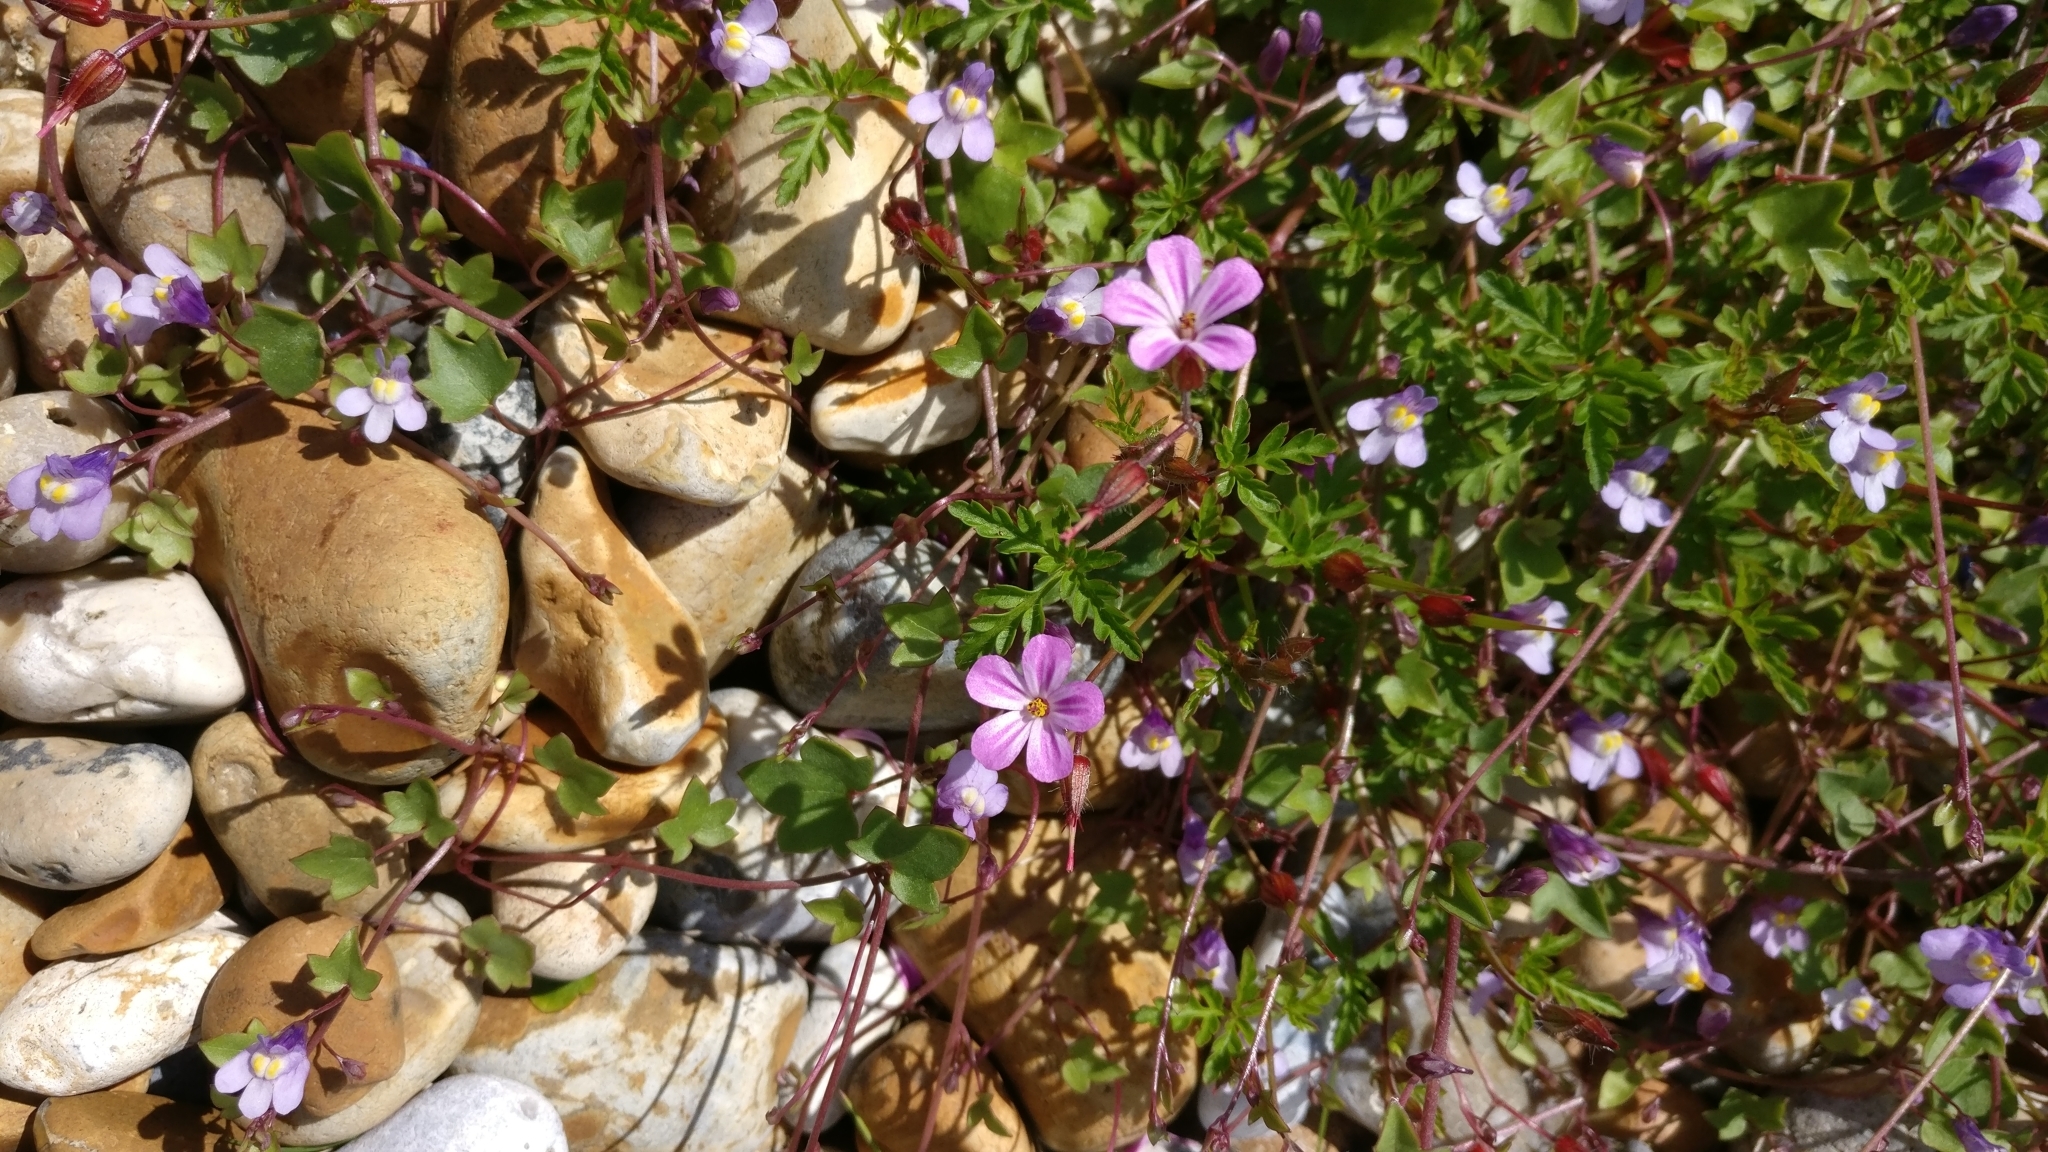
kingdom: Plantae
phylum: Tracheophyta
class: Magnoliopsida
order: Geraniales
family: Geraniaceae
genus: Geranium
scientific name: Geranium robertianum
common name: Herb-robert
